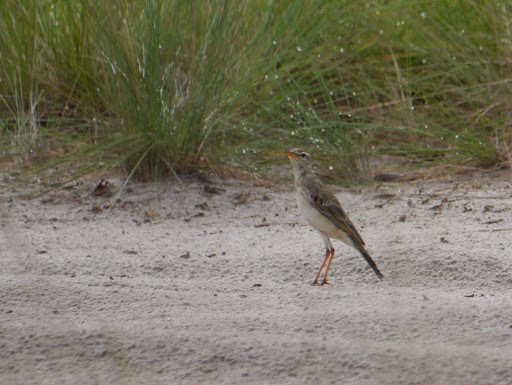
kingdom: Animalia
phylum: Chordata
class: Aves
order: Passeriformes
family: Motacillidae
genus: Anthus
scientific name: Anthus pallidiventris
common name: Long-legged pipit
